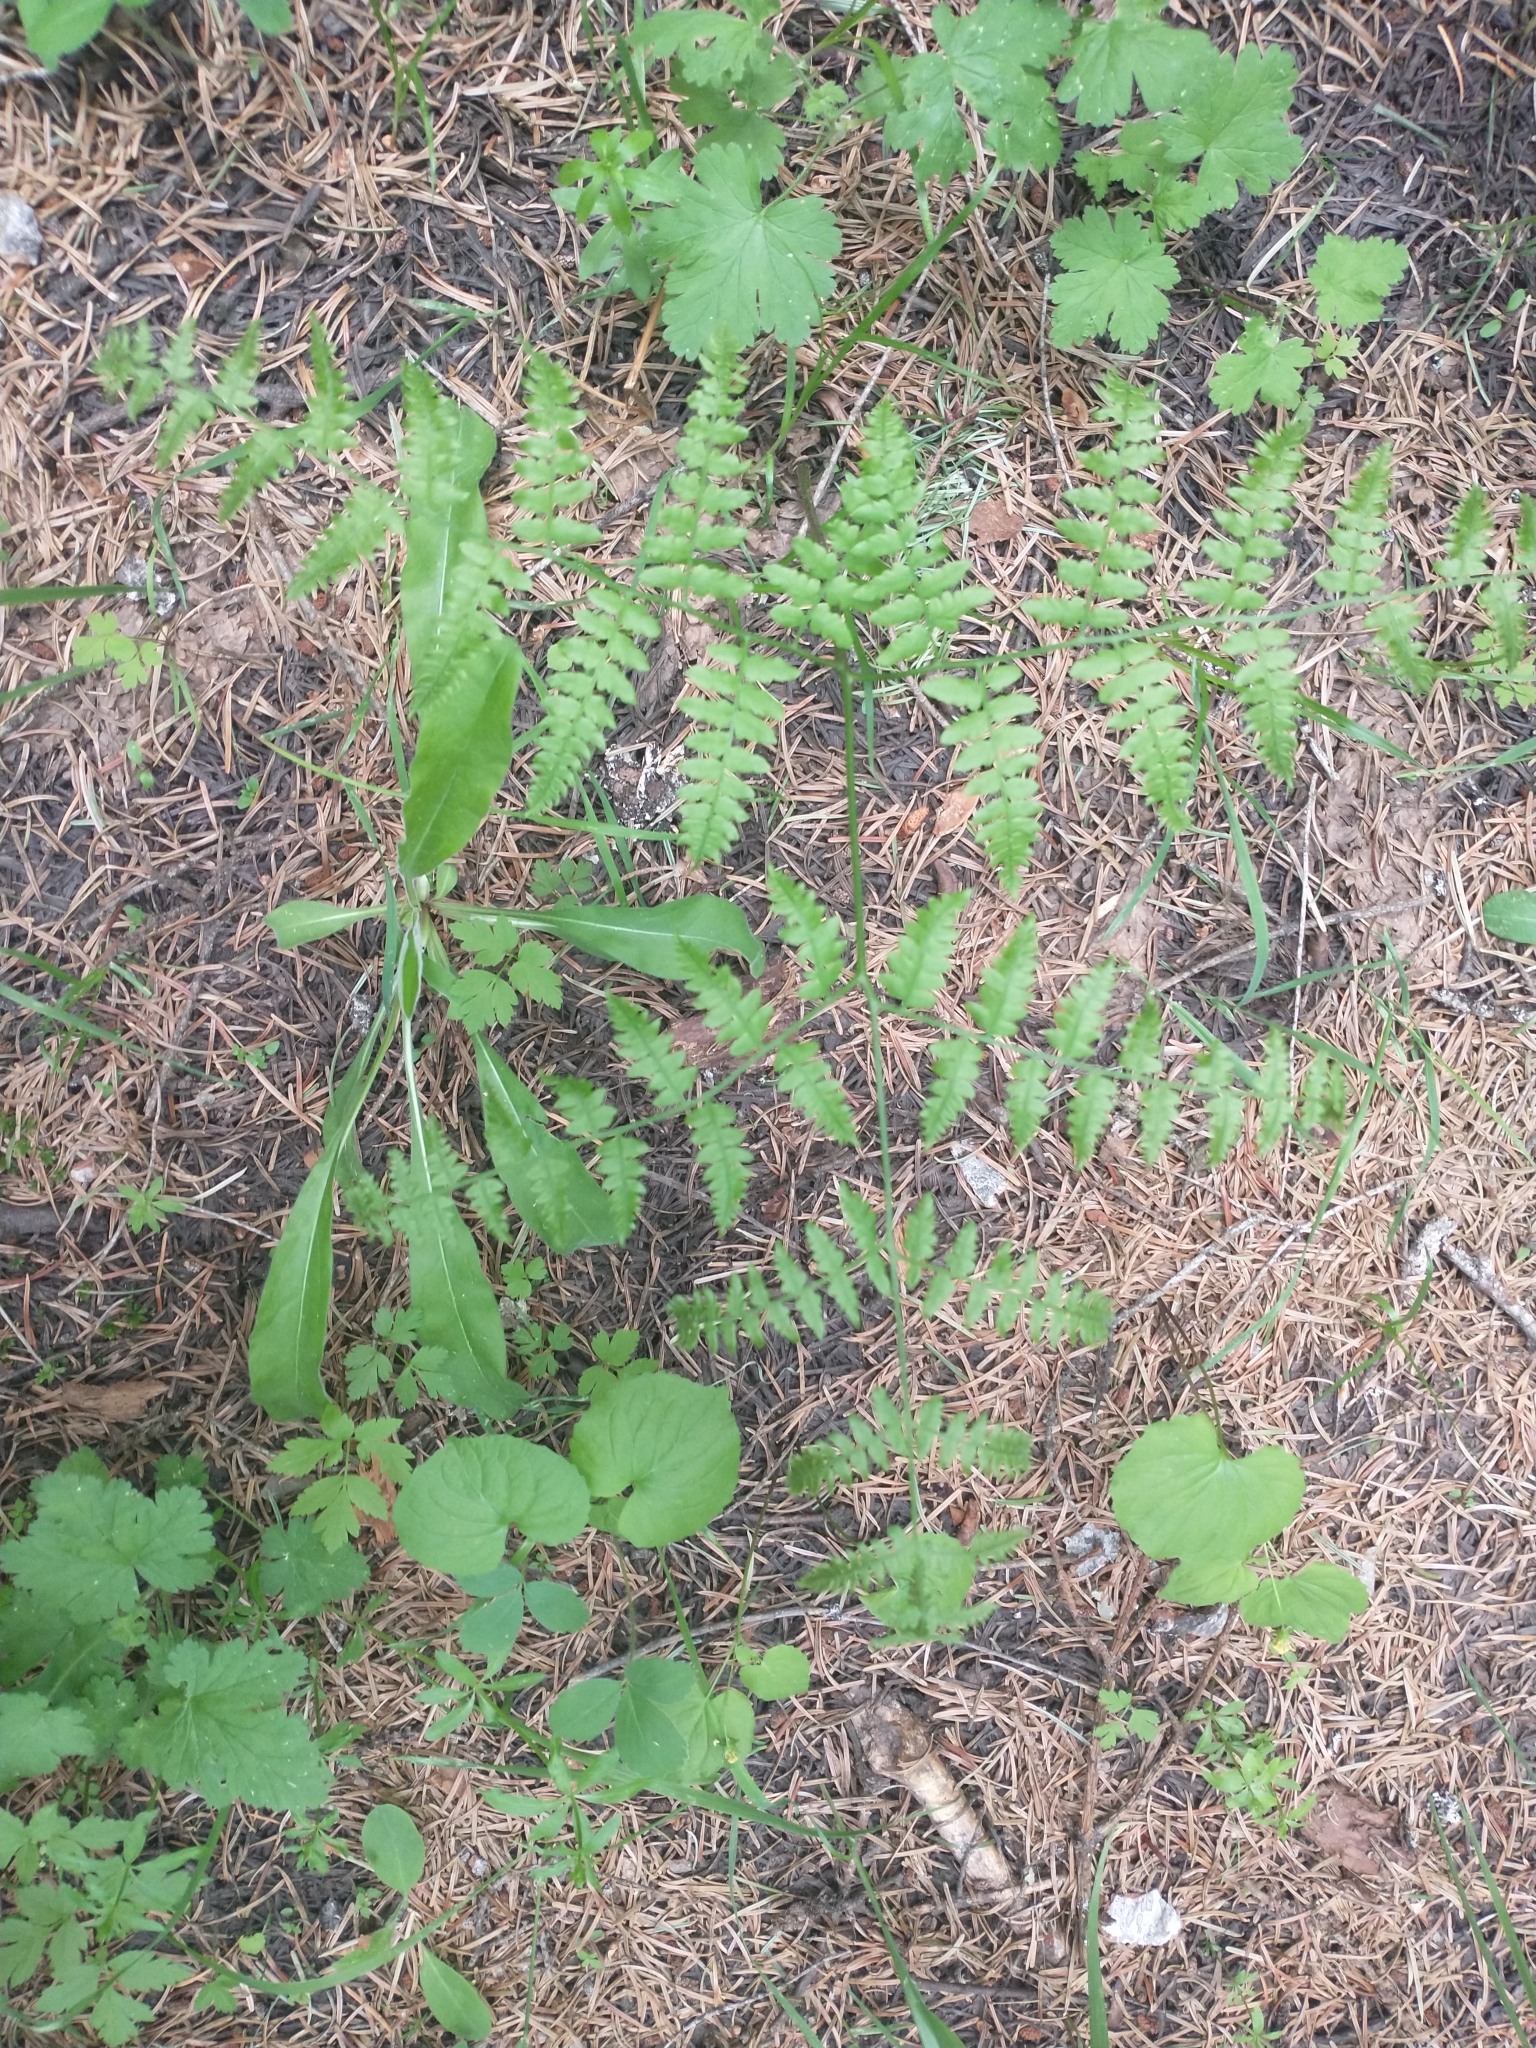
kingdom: Plantae
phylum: Tracheophyta
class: Polypodiopsida
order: Polypodiales
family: Dennstaedtiaceae
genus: Pteridium
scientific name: Pteridium aquilinum
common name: Bracken
